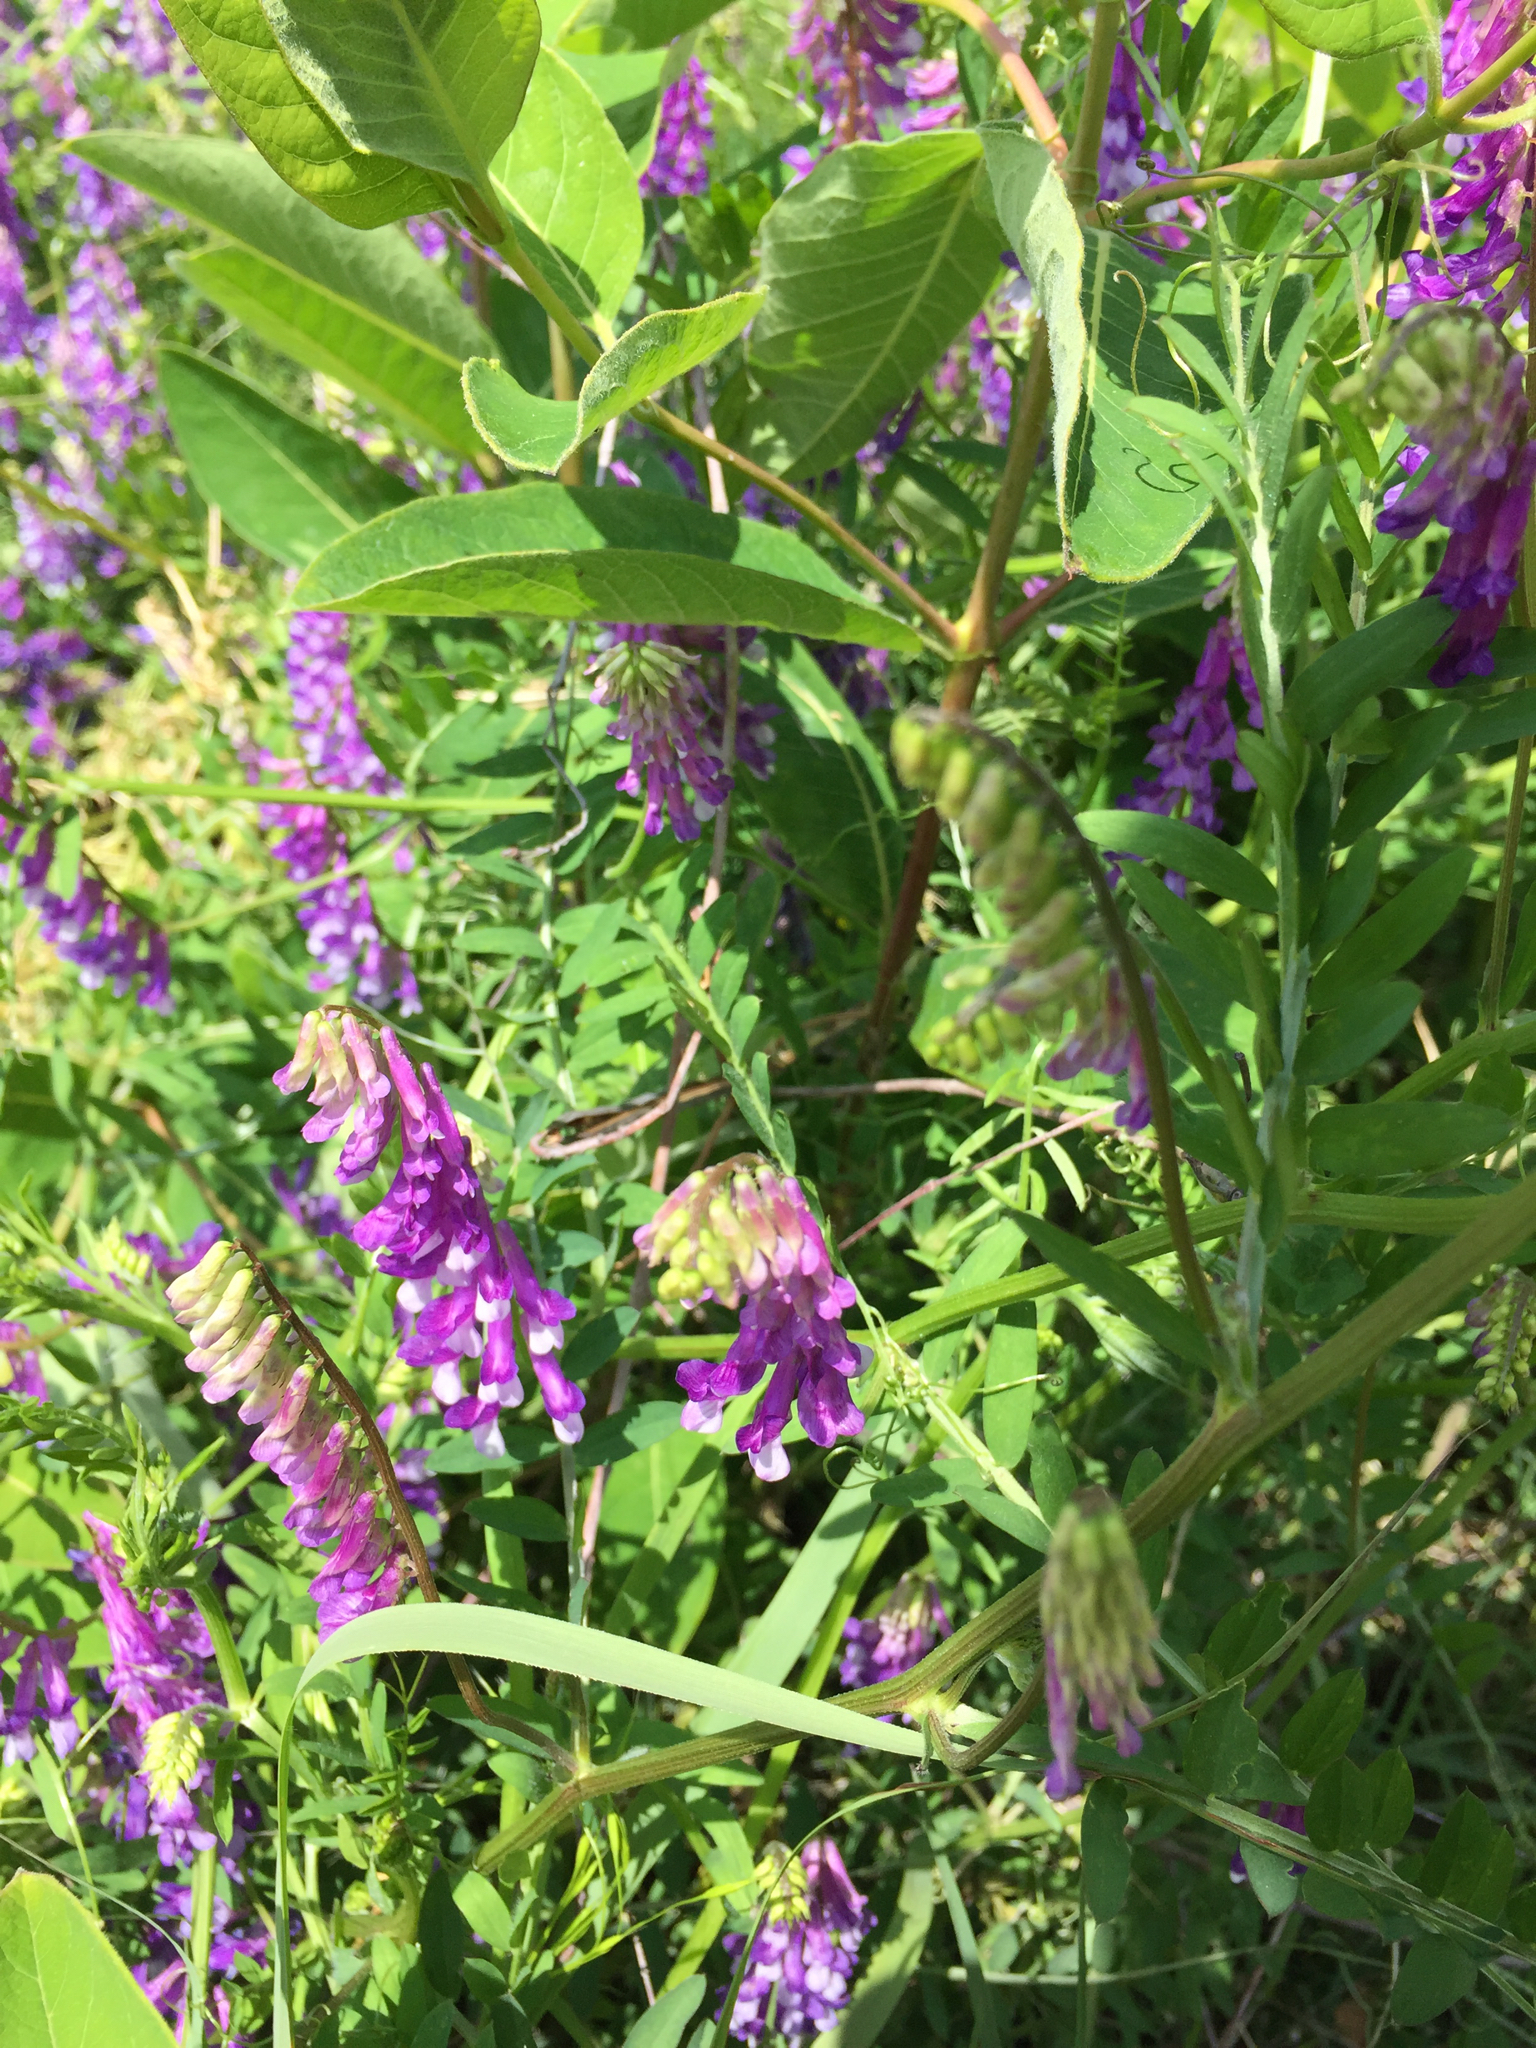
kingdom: Plantae
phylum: Tracheophyta
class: Magnoliopsida
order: Fabales
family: Fabaceae
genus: Vicia
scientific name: Vicia villosa
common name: Fodder vetch
